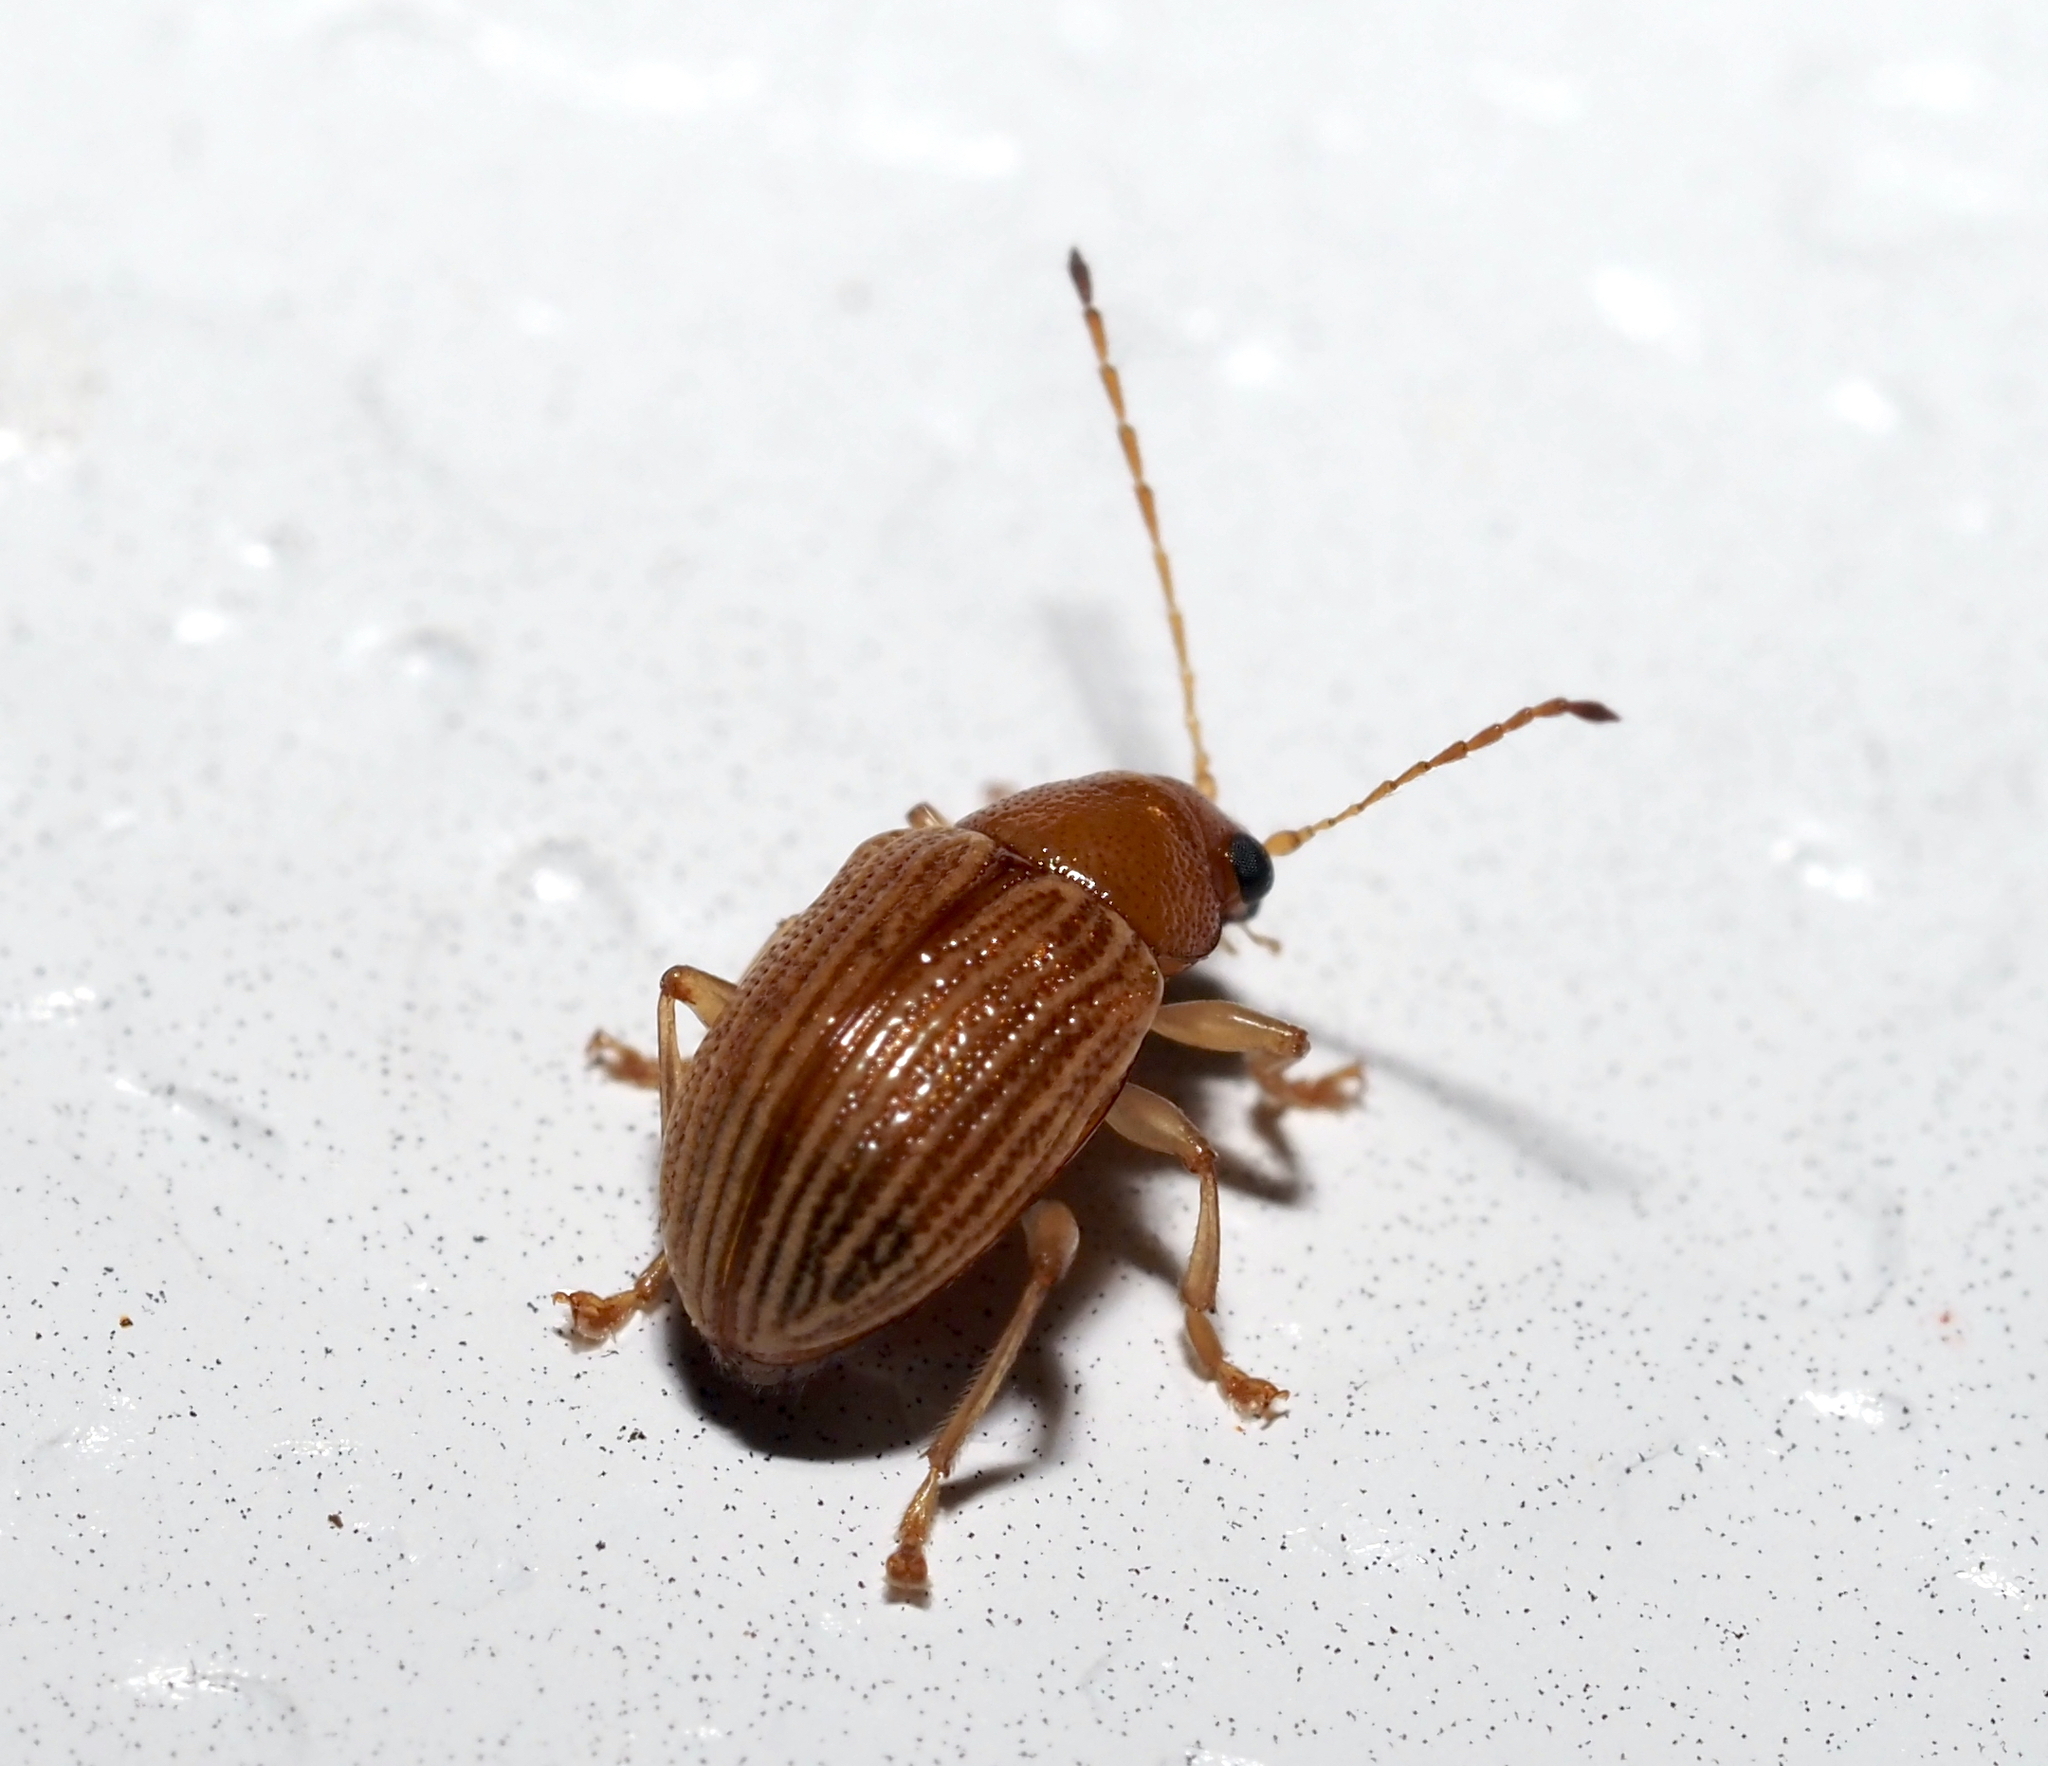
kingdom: Animalia
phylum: Arthropoda
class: Insecta
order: Coleoptera
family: Chrysomelidae
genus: Colaspis
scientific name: Colaspis brunnea
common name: Grape colaspis
